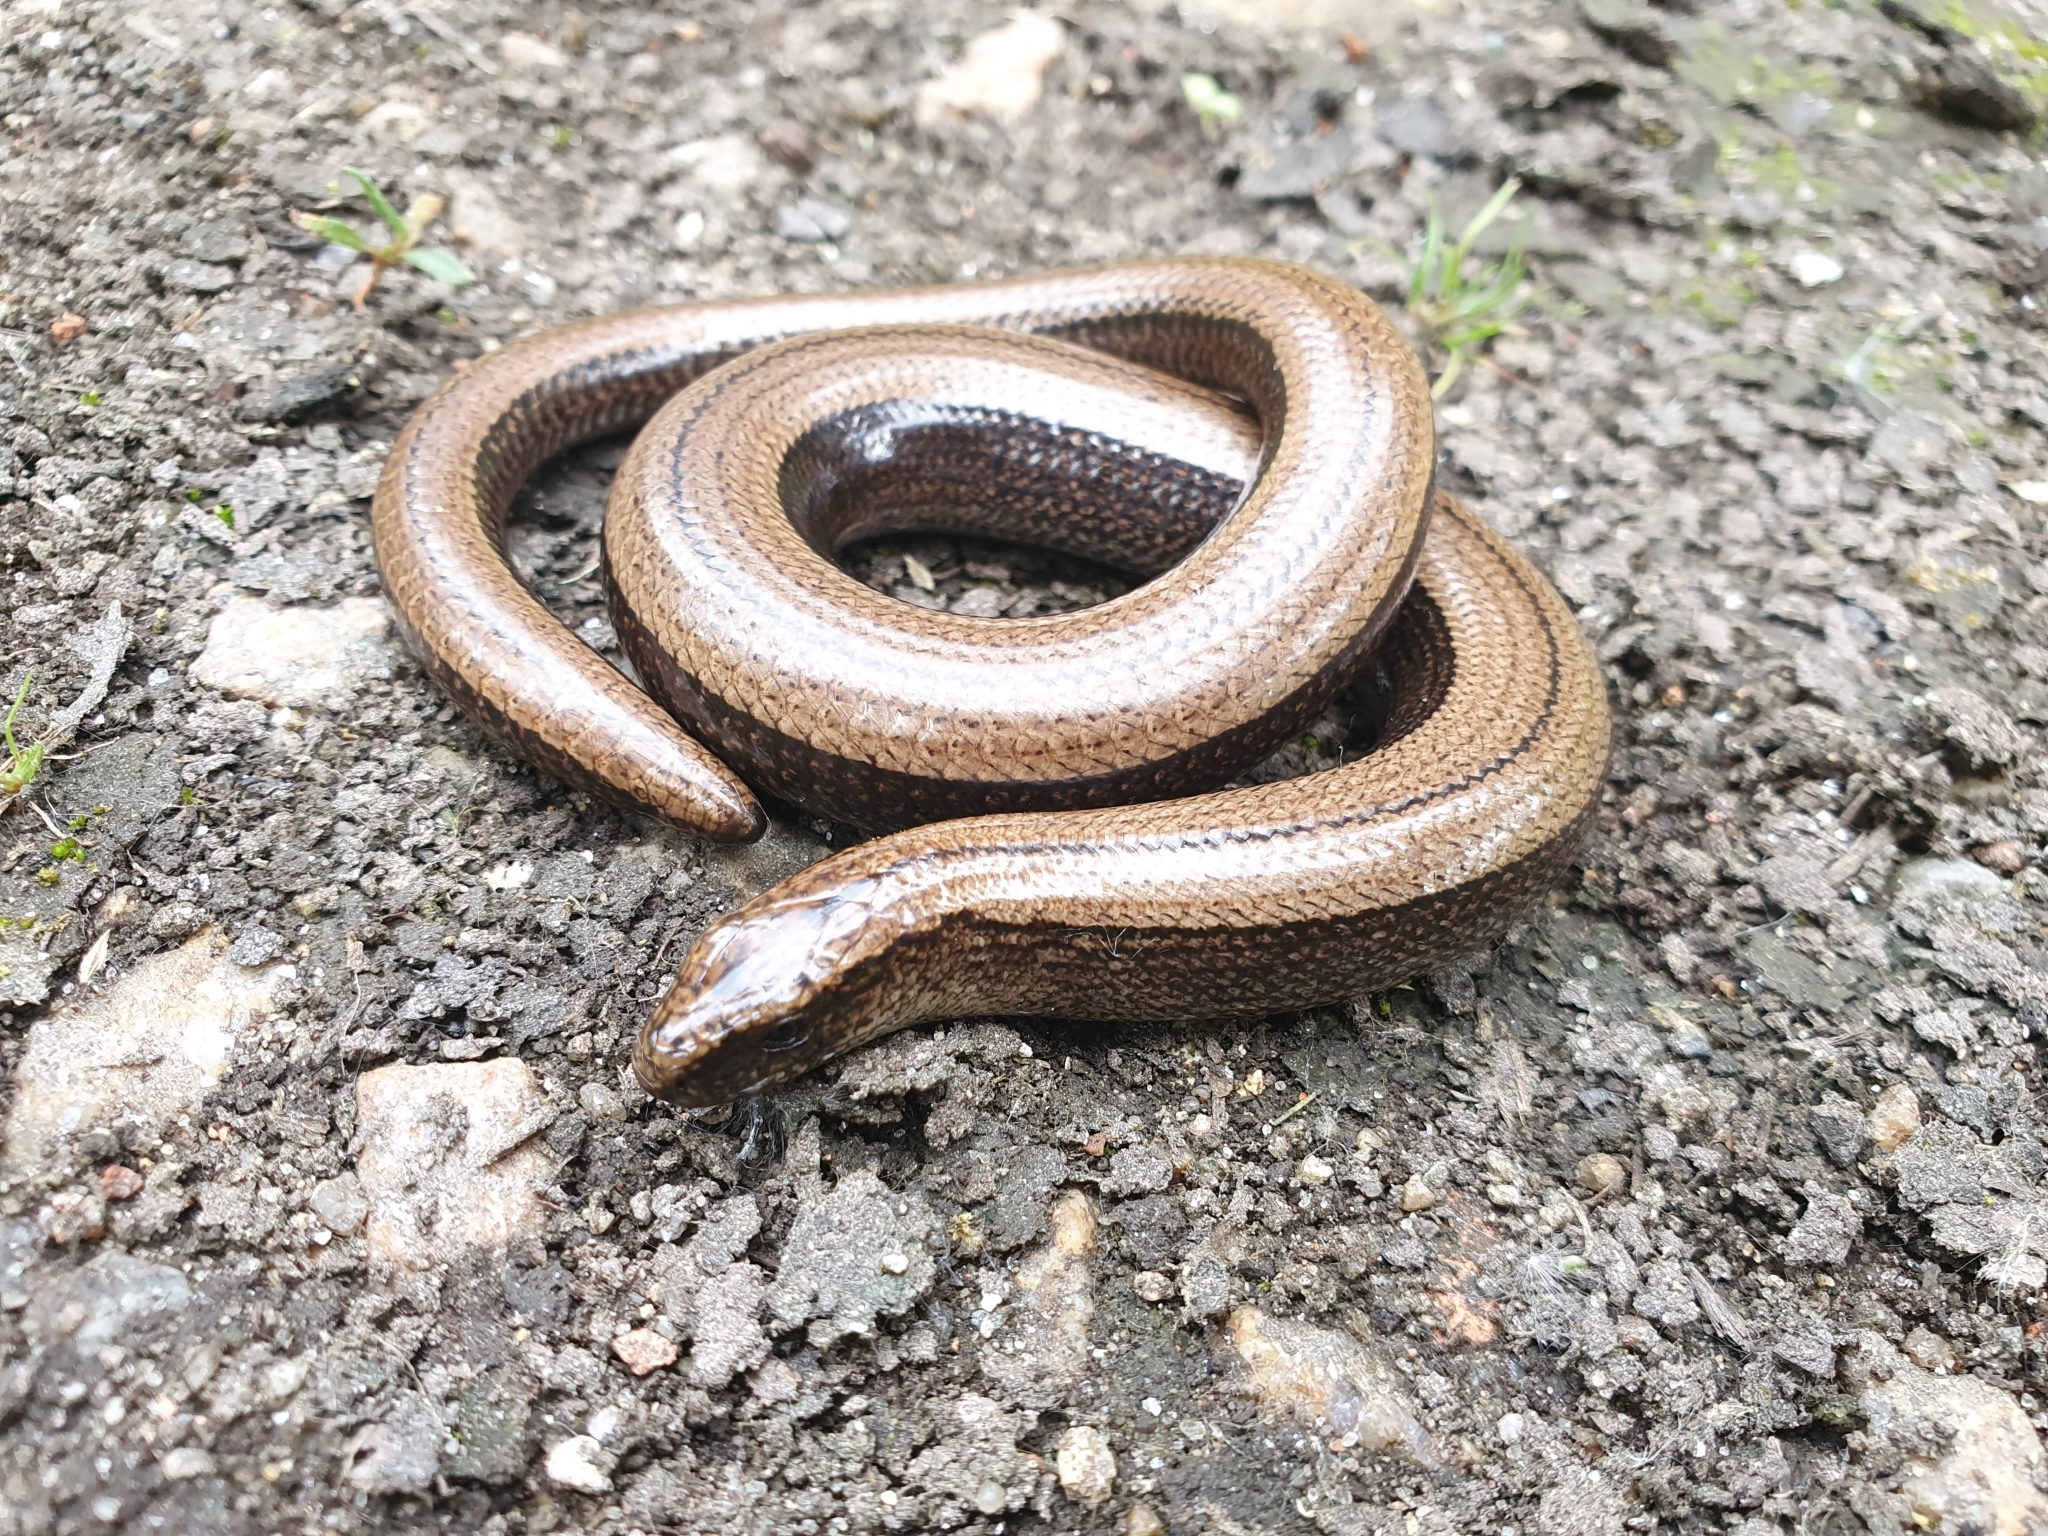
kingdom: Animalia
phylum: Chordata
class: Squamata
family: Anguidae
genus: Anguis
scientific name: Anguis fragilis
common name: Slow worm
